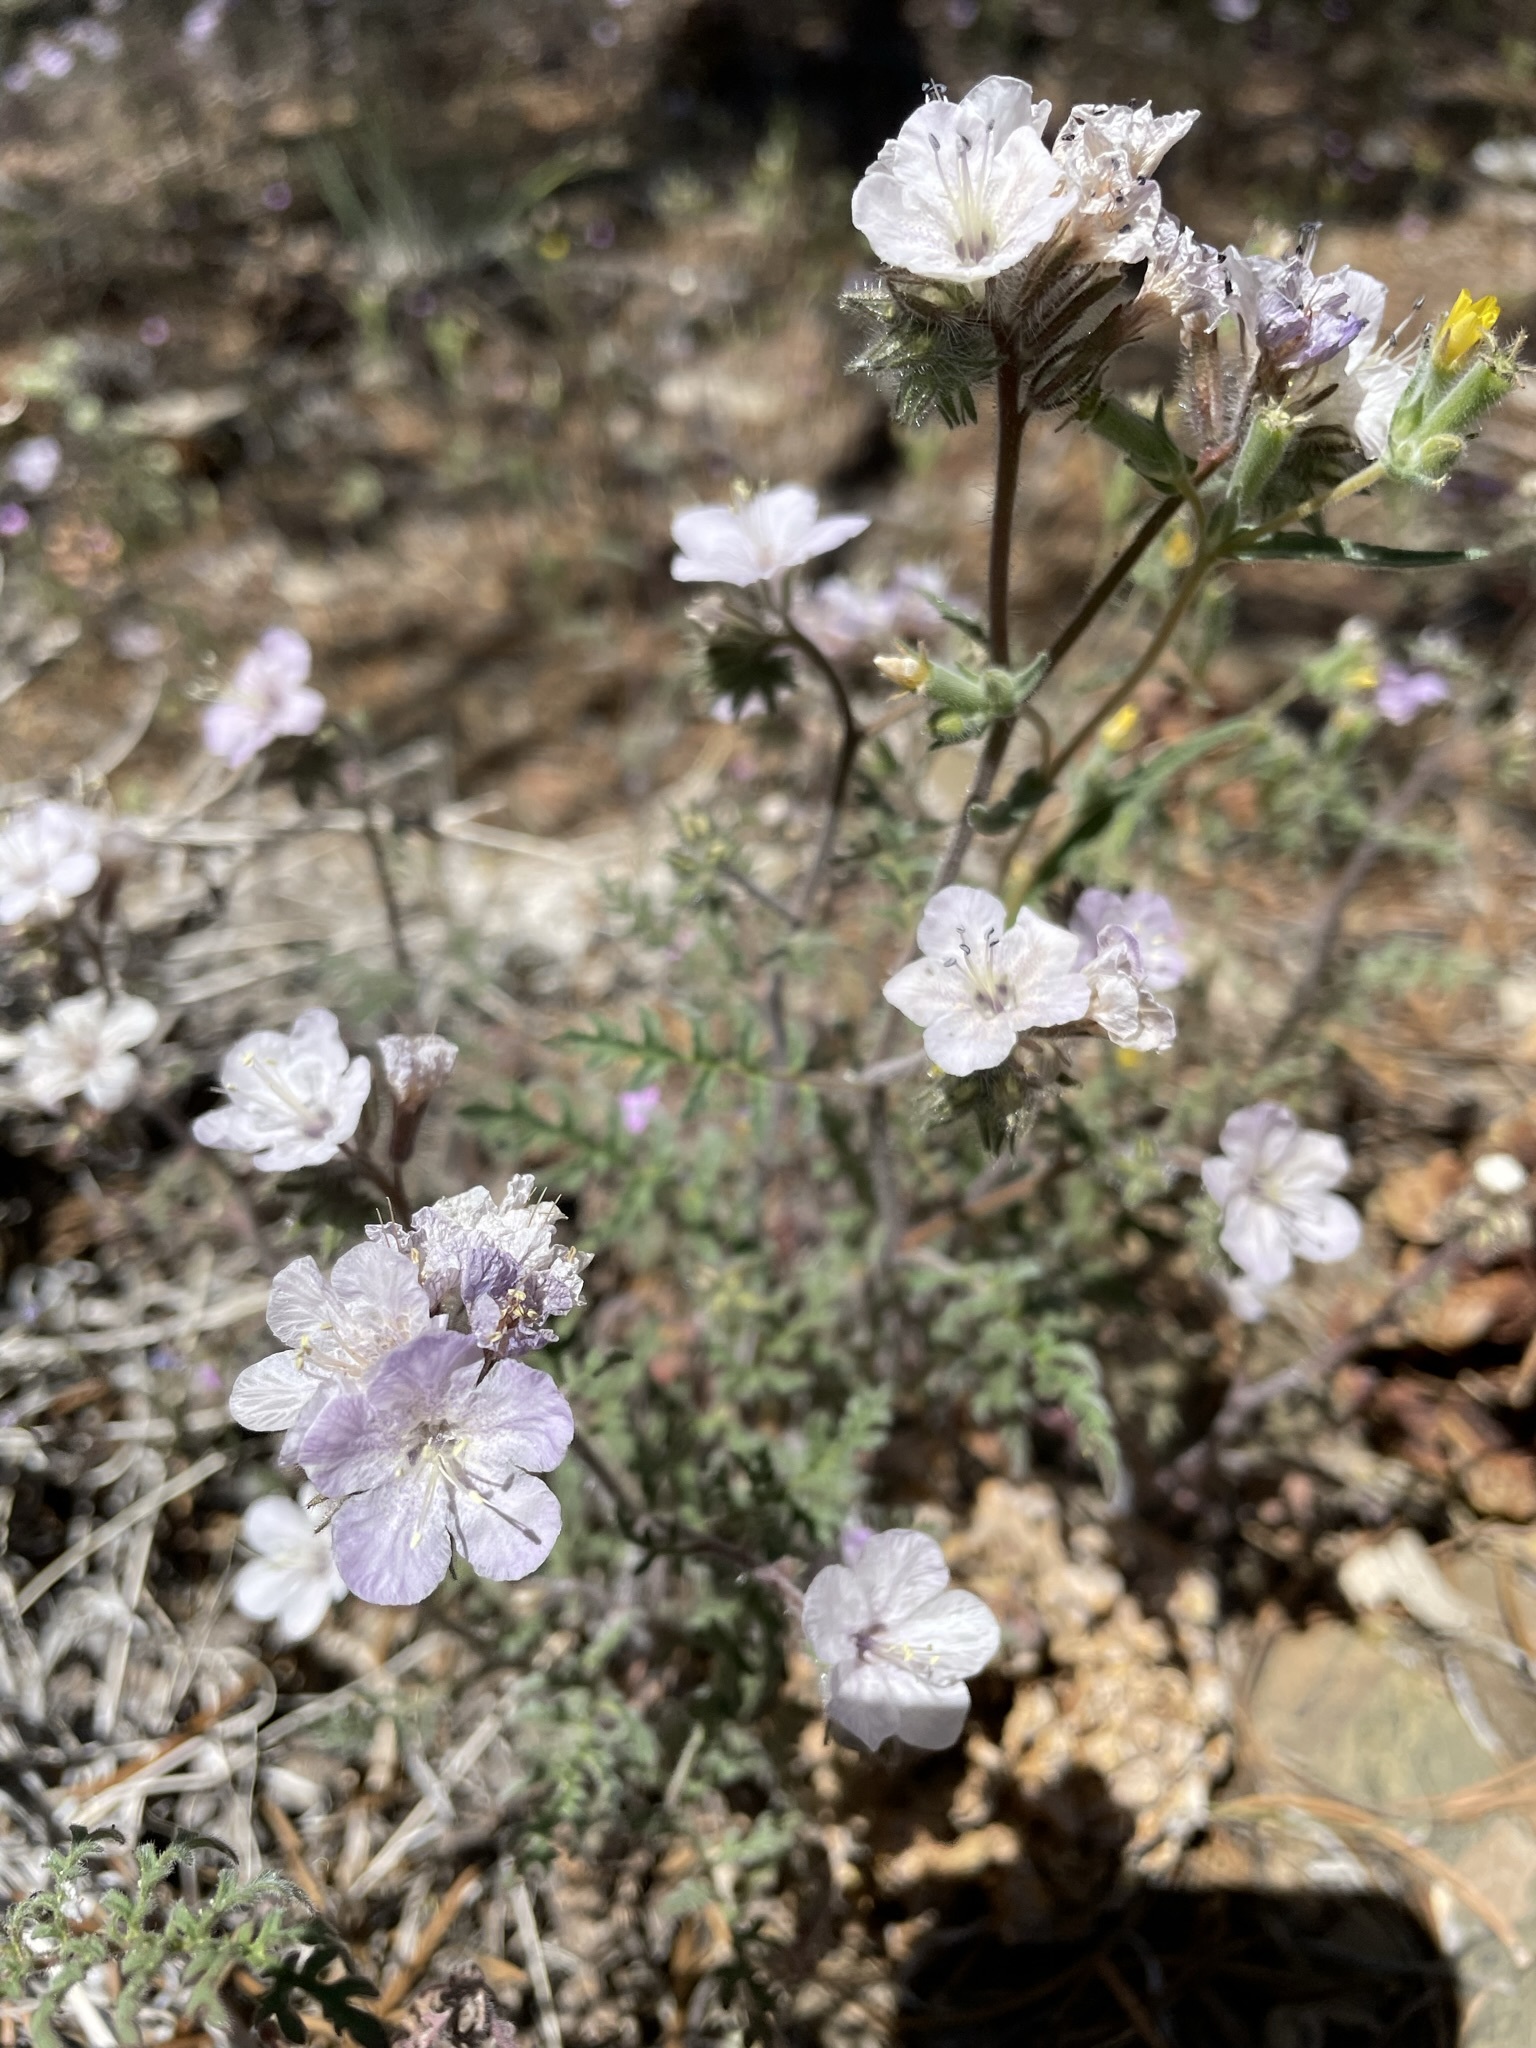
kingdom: Plantae
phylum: Tracheophyta
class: Magnoliopsida
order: Boraginales
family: Hydrophyllaceae
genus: Phacelia
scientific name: Phacelia vallis-mortae
